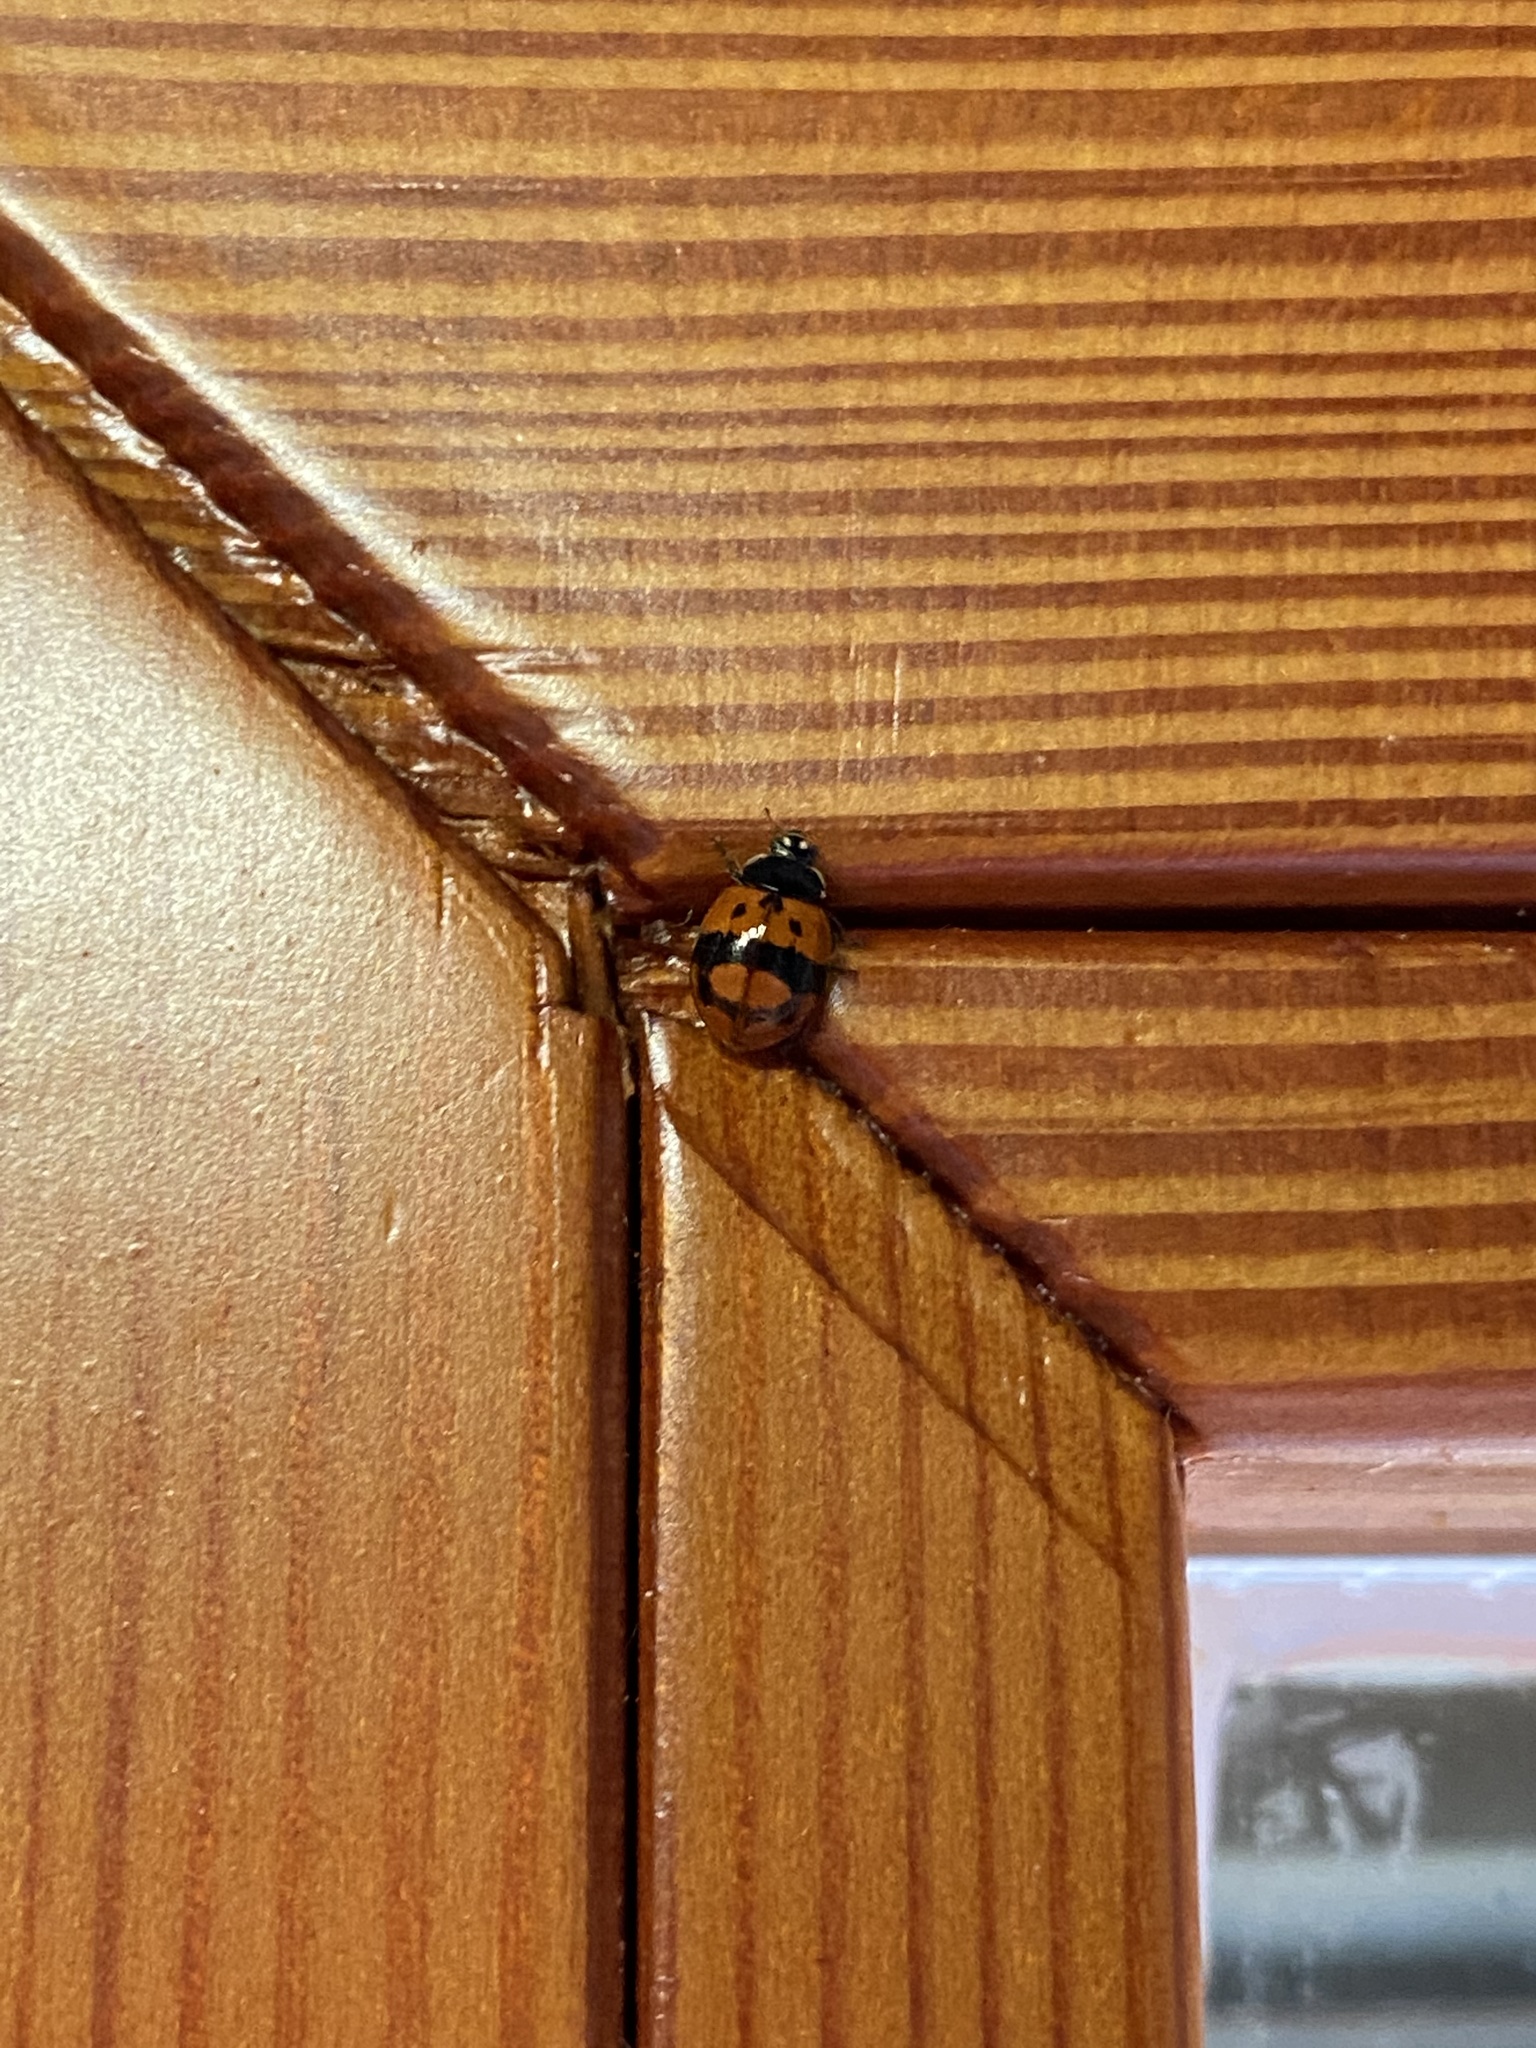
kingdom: Animalia
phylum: Arthropoda
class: Insecta
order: Coleoptera
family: Coccinellidae
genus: Adalia
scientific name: Adalia bipunctata
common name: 2-spot ladybird
